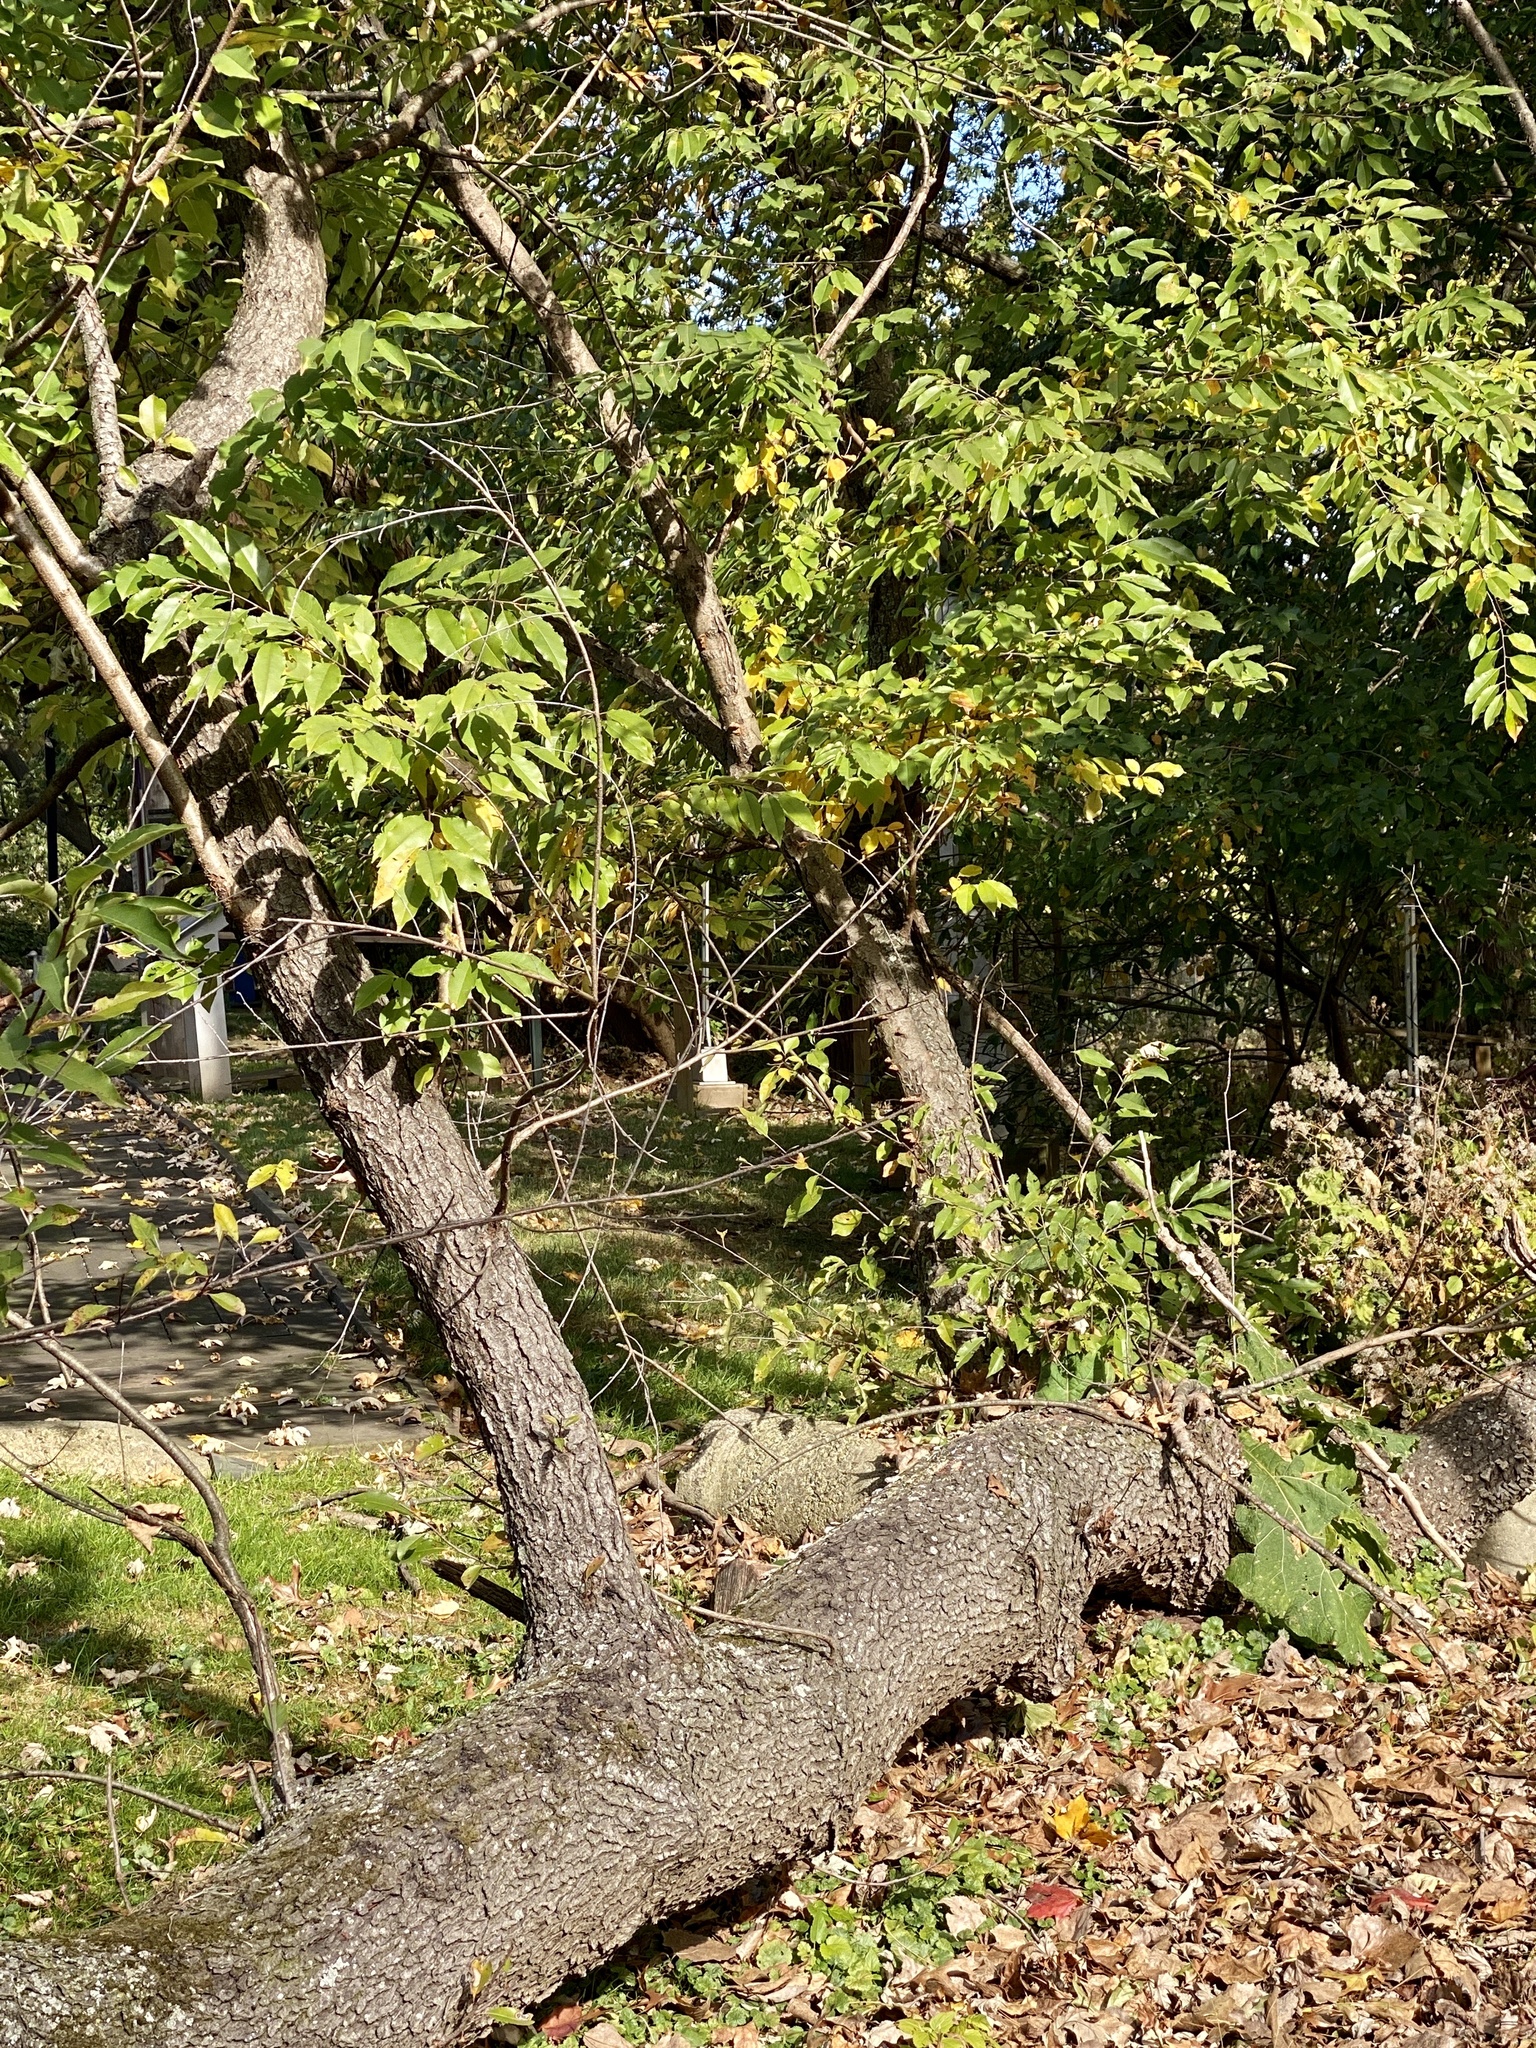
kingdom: Plantae
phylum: Tracheophyta
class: Magnoliopsida
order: Rosales
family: Rosaceae
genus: Prunus
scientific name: Prunus serotina
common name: Black cherry
